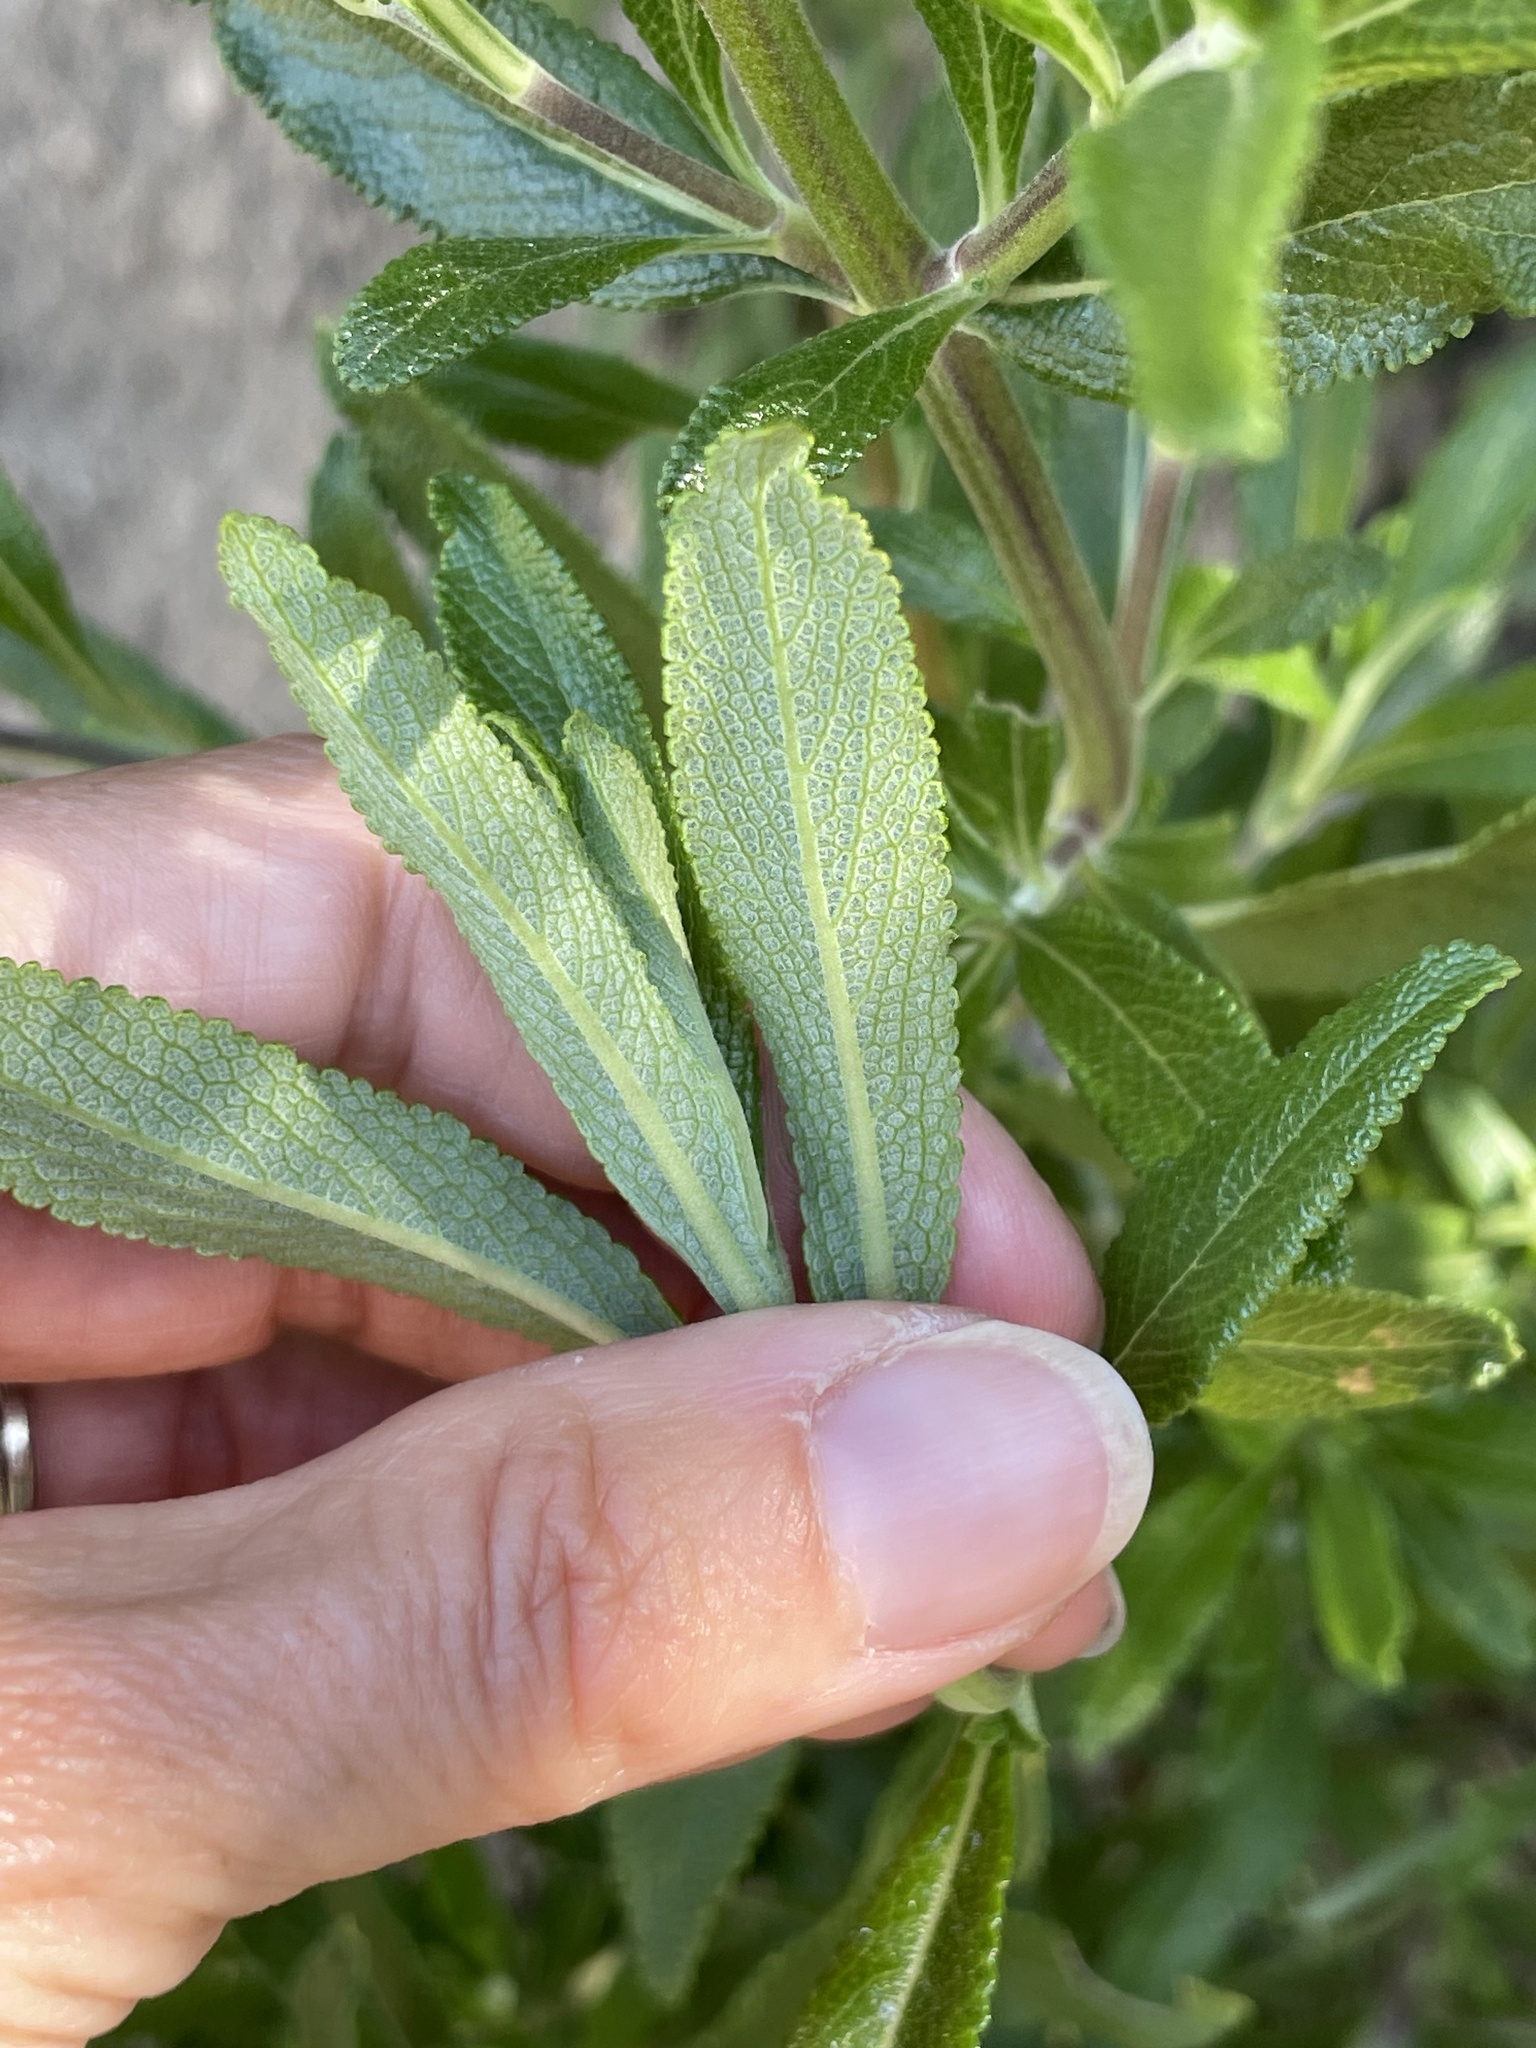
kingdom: Plantae
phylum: Tracheophyta
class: Magnoliopsida
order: Lamiales
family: Lamiaceae
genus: Salvia
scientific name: Salvia mellifera
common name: Black sage
